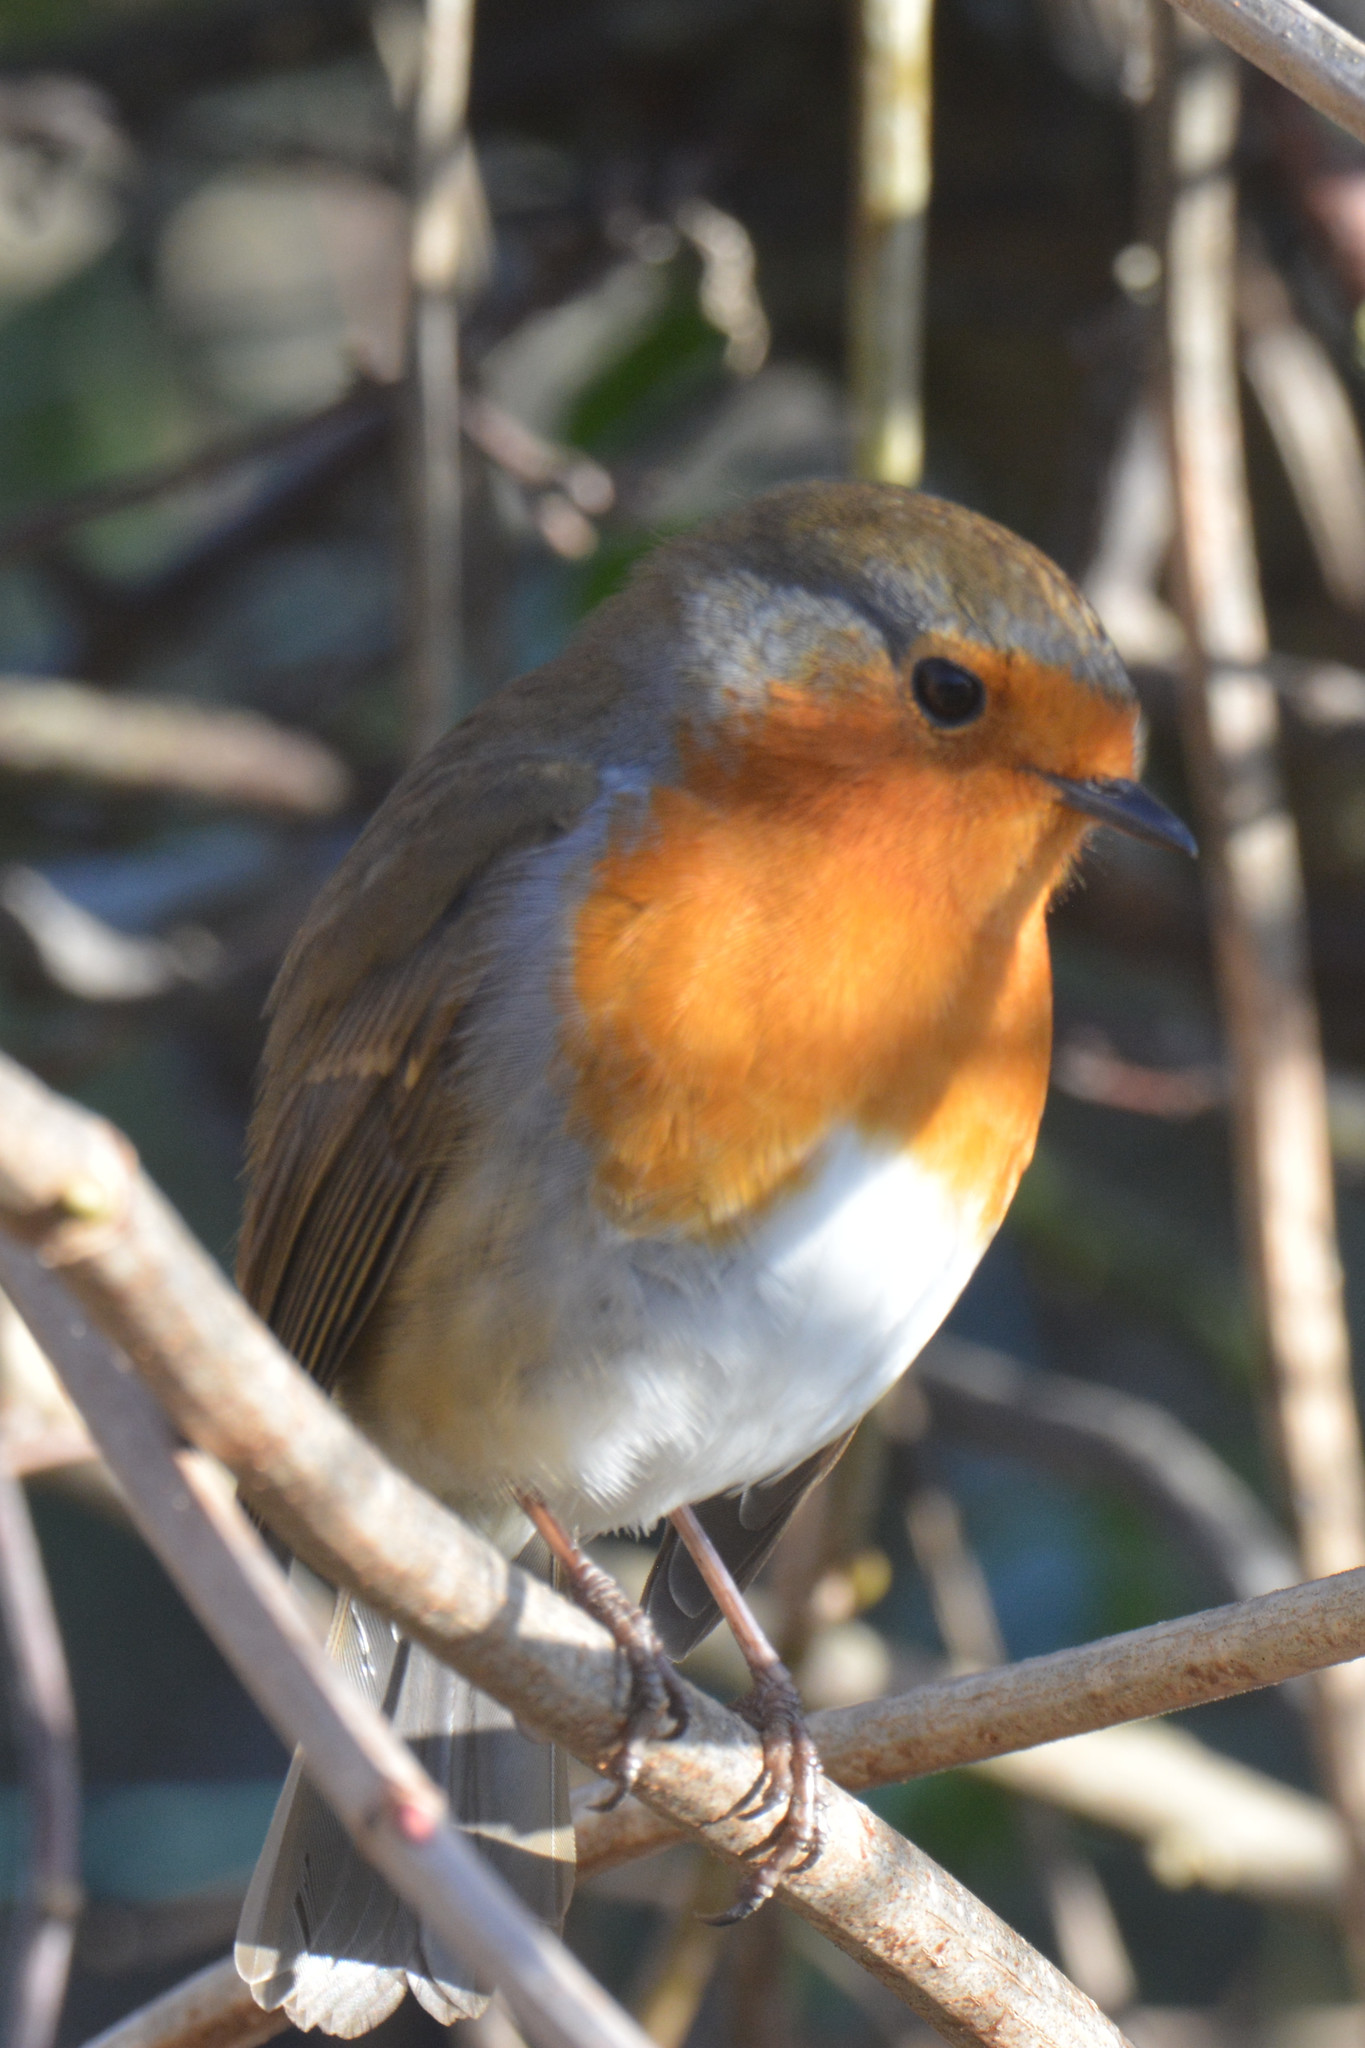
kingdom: Animalia
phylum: Chordata
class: Aves
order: Passeriformes
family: Muscicapidae
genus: Erithacus
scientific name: Erithacus rubecula
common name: European robin
